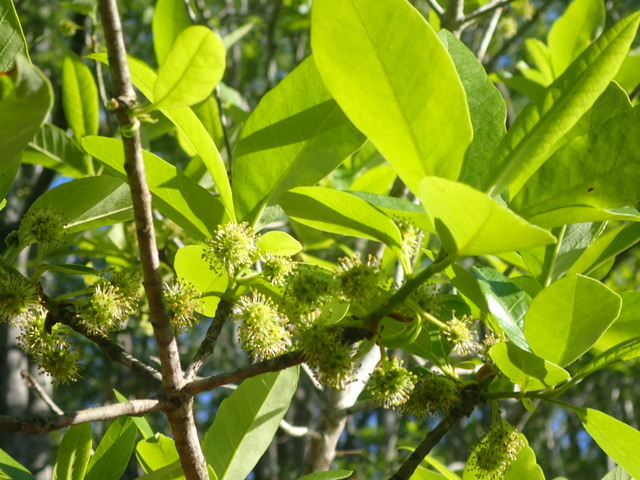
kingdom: Plantae
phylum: Tracheophyta
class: Magnoliopsida
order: Cornales
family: Nyssaceae
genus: Nyssa
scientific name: Nyssa ogeche
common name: Ogeechee tupelo
